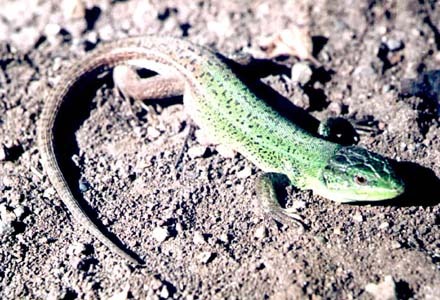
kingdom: Animalia
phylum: Chordata
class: Squamata
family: Lacertidae
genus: Lacerta
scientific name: Lacerta strigata
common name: Caspian green lizard
